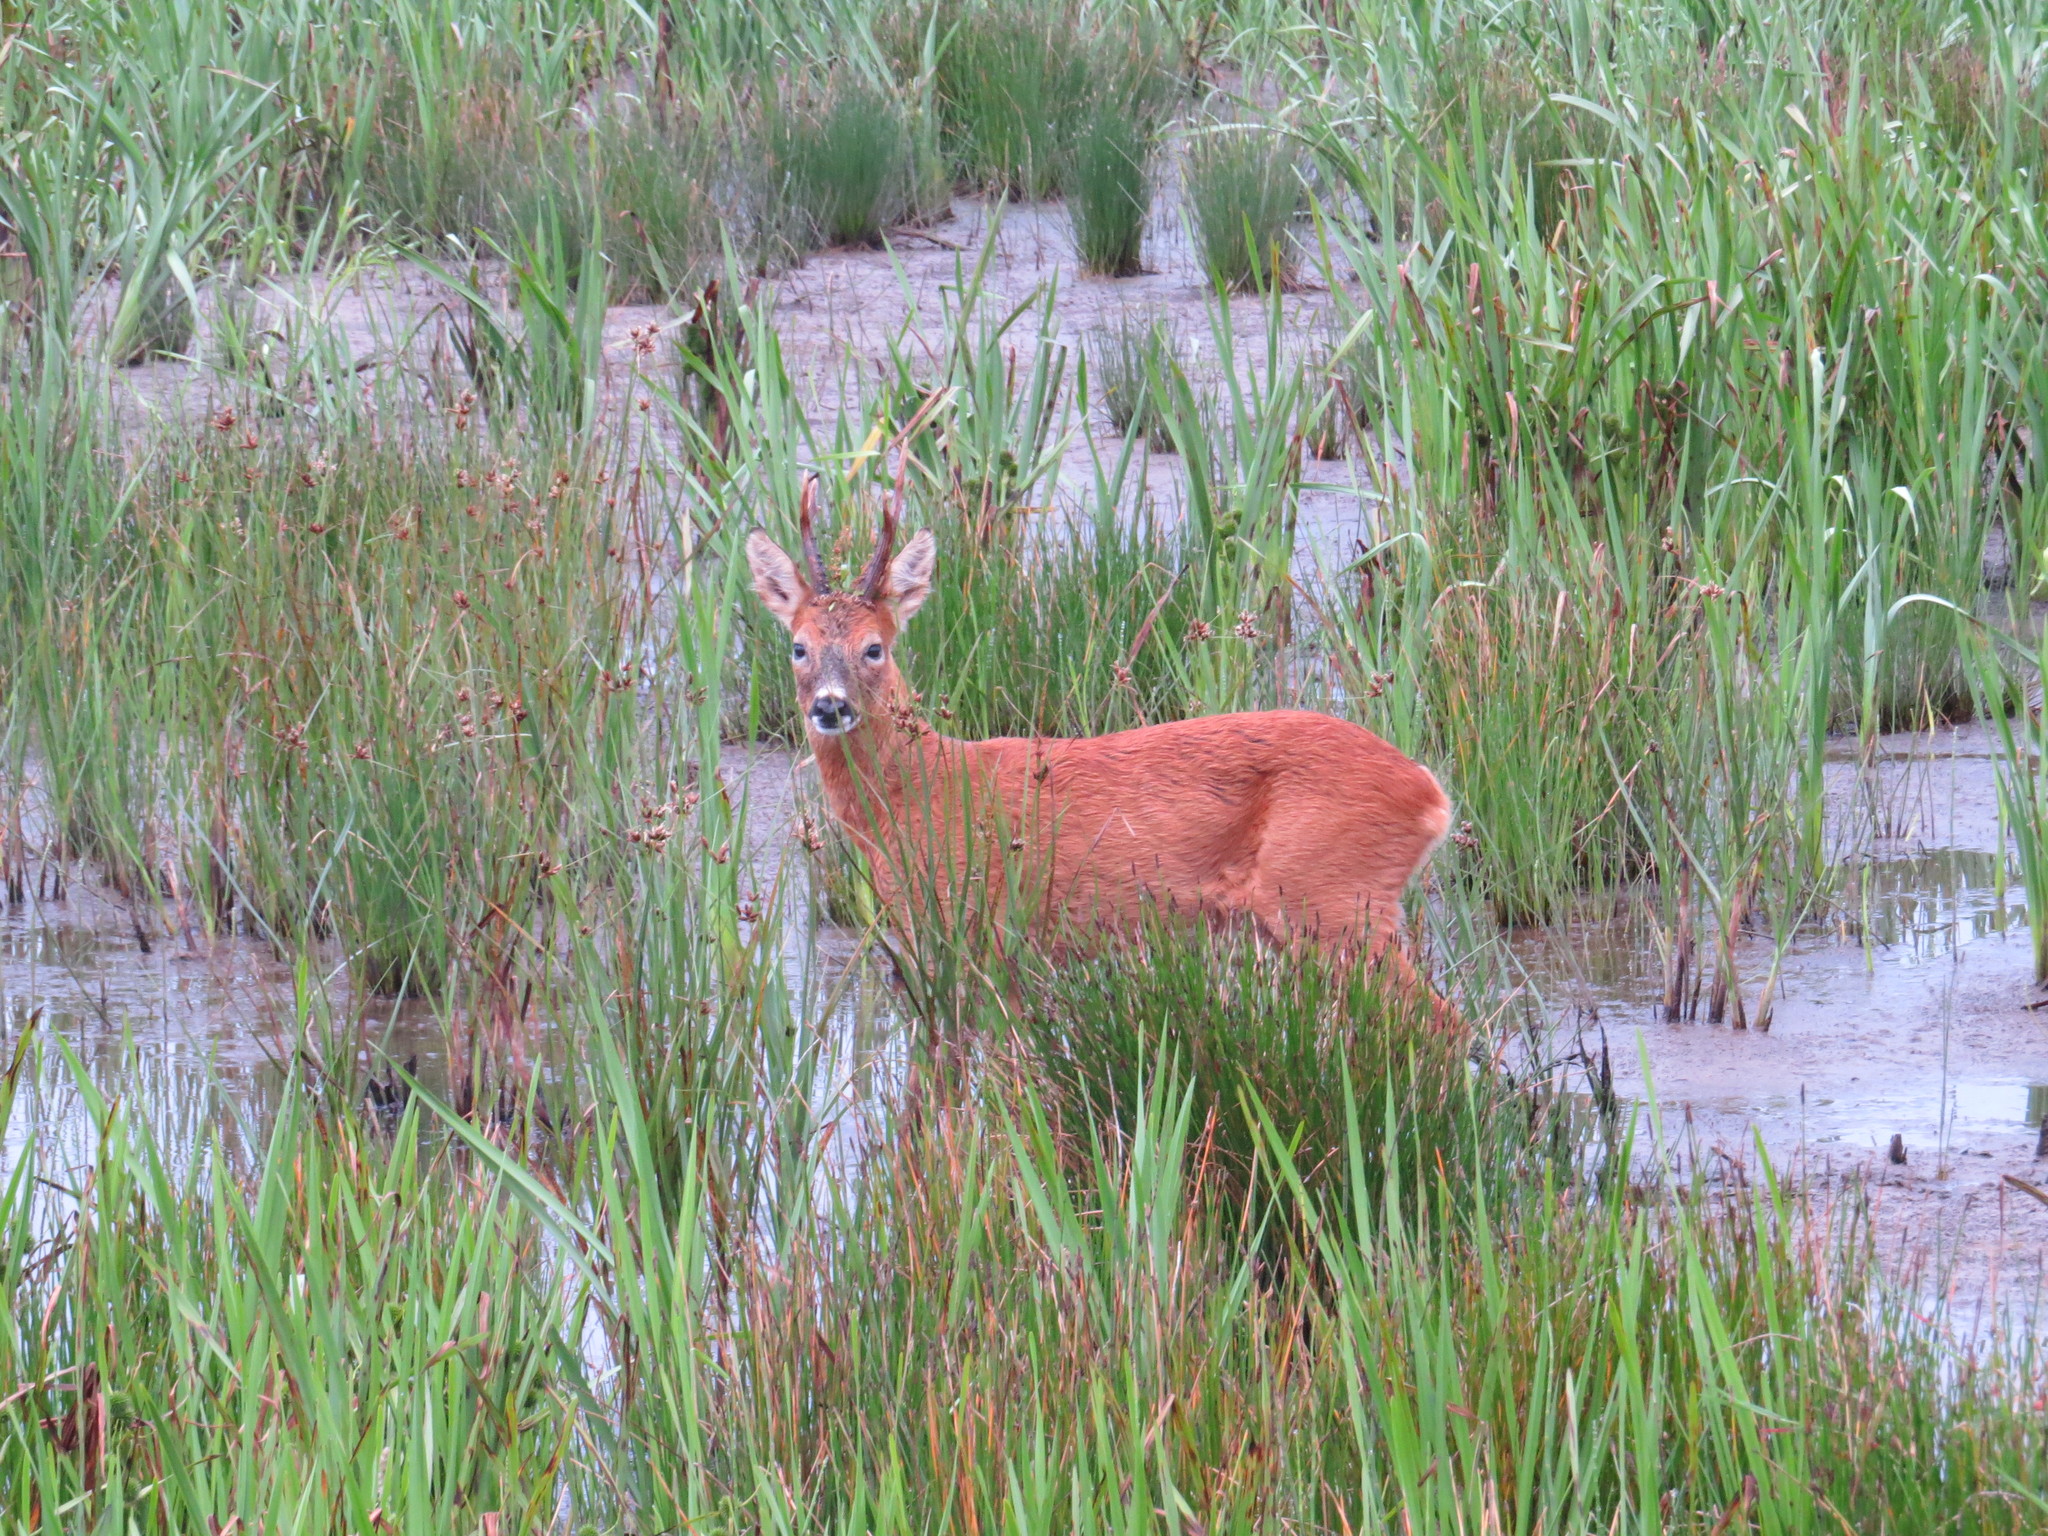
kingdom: Animalia
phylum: Chordata
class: Mammalia
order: Artiodactyla
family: Cervidae
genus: Capreolus
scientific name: Capreolus capreolus
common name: Western roe deer
